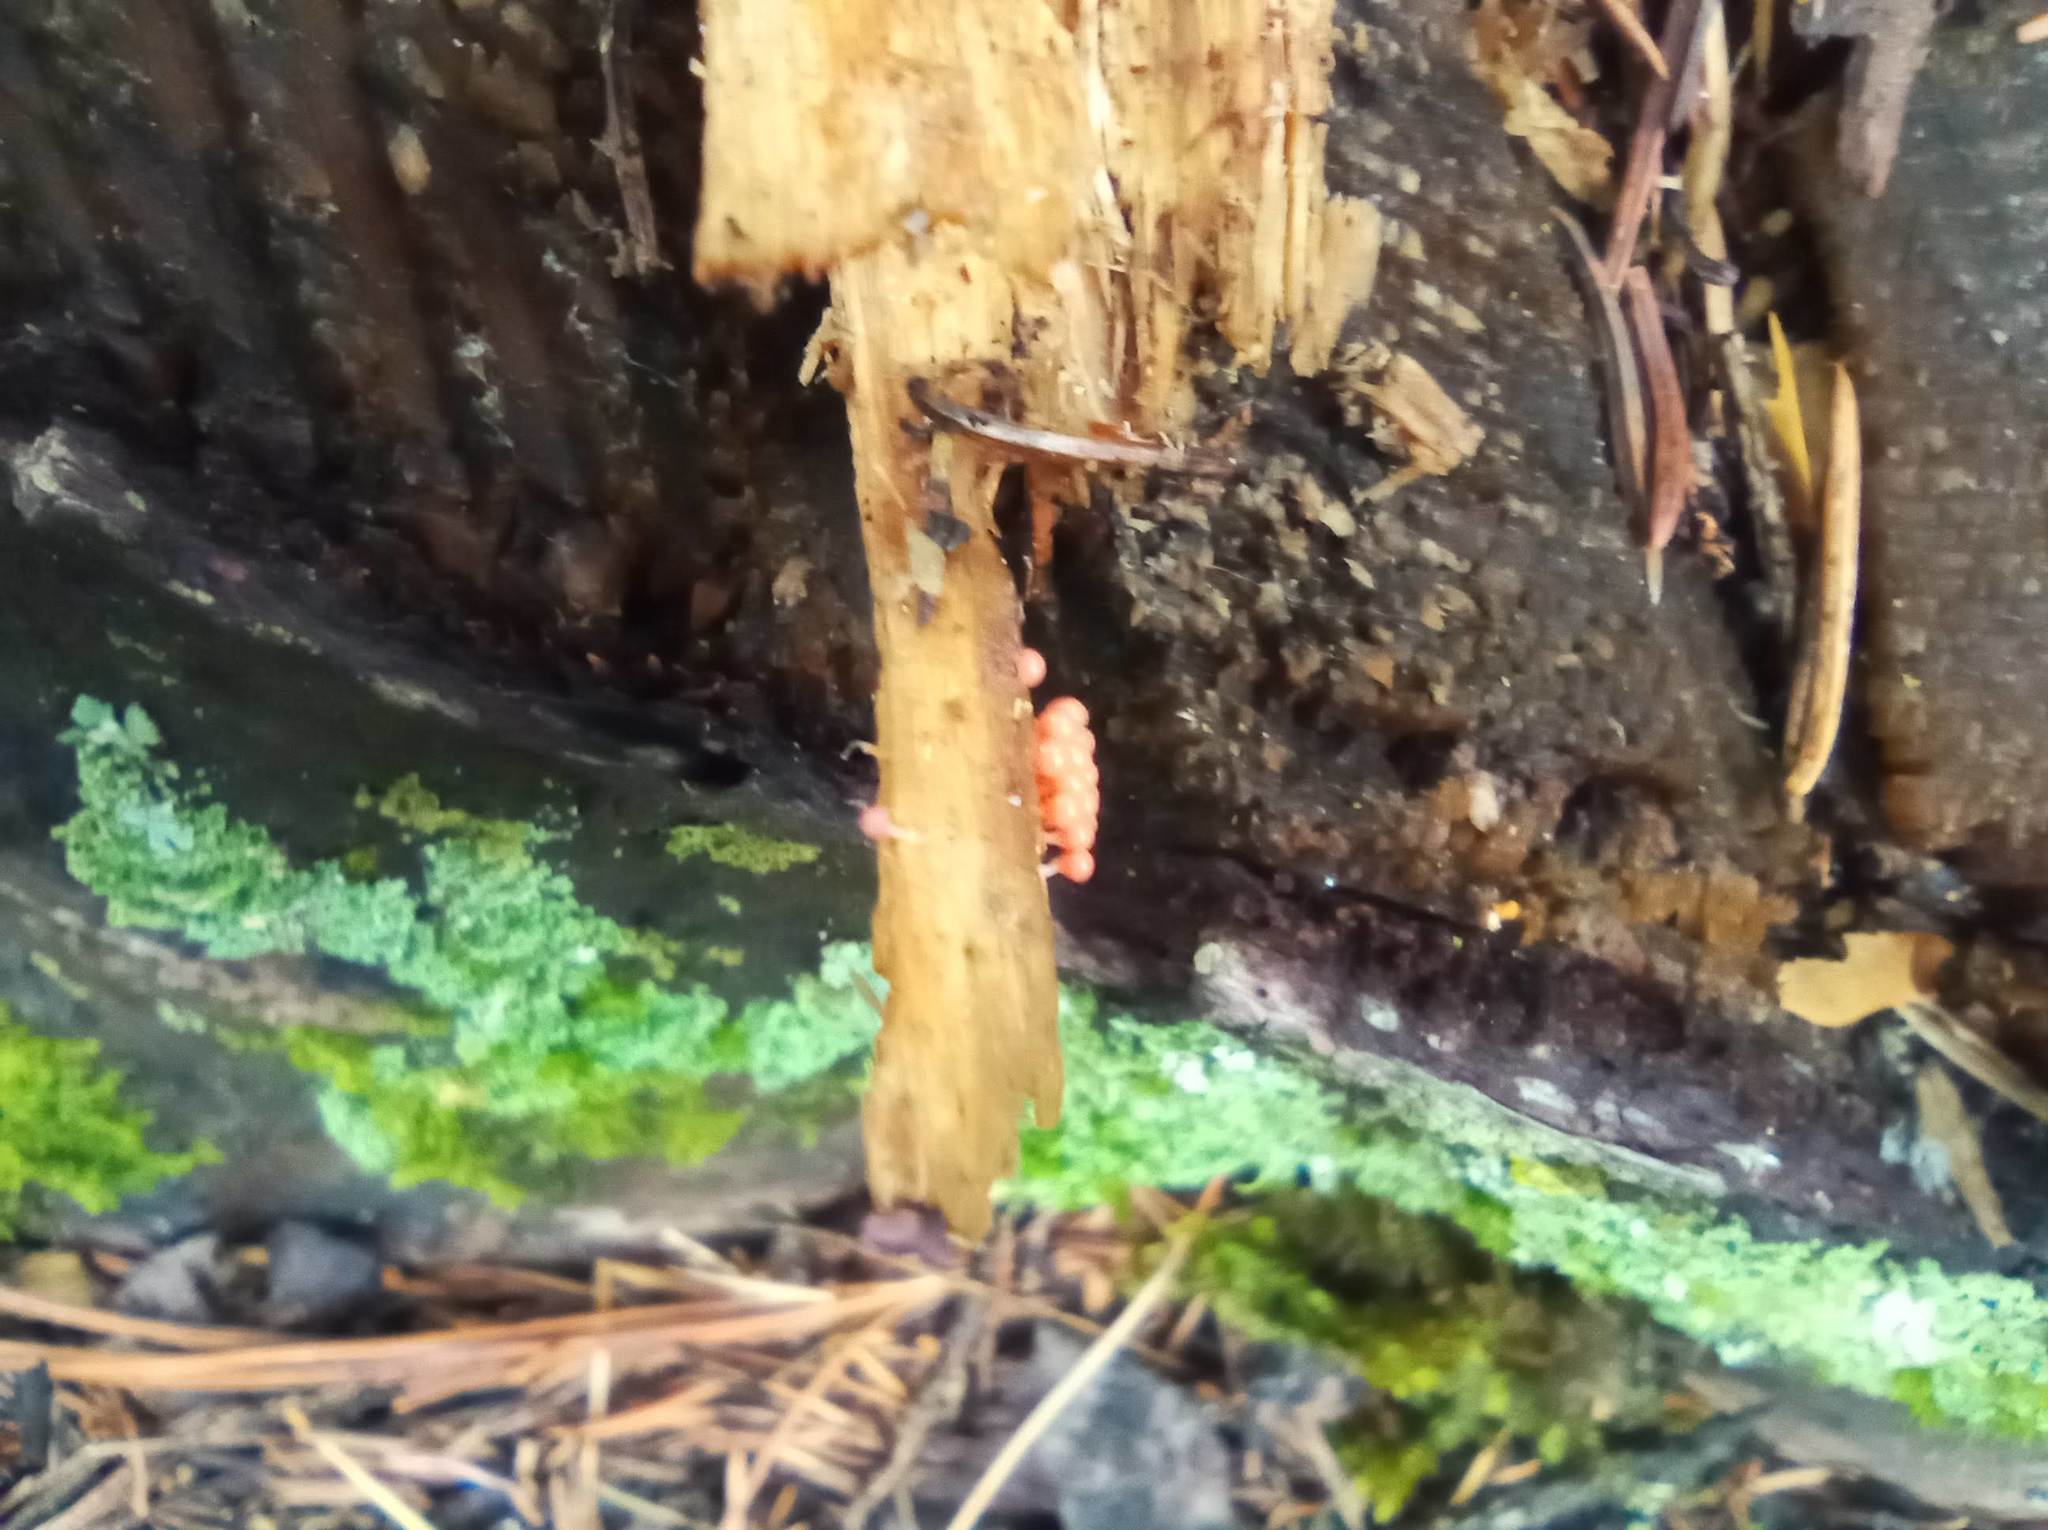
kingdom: Protozoa
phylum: Mycetozoa
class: Myxomycetes
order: Trichiales
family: Arcyriaceae
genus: Hemitrichia
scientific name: Hemitrichia decipiens
